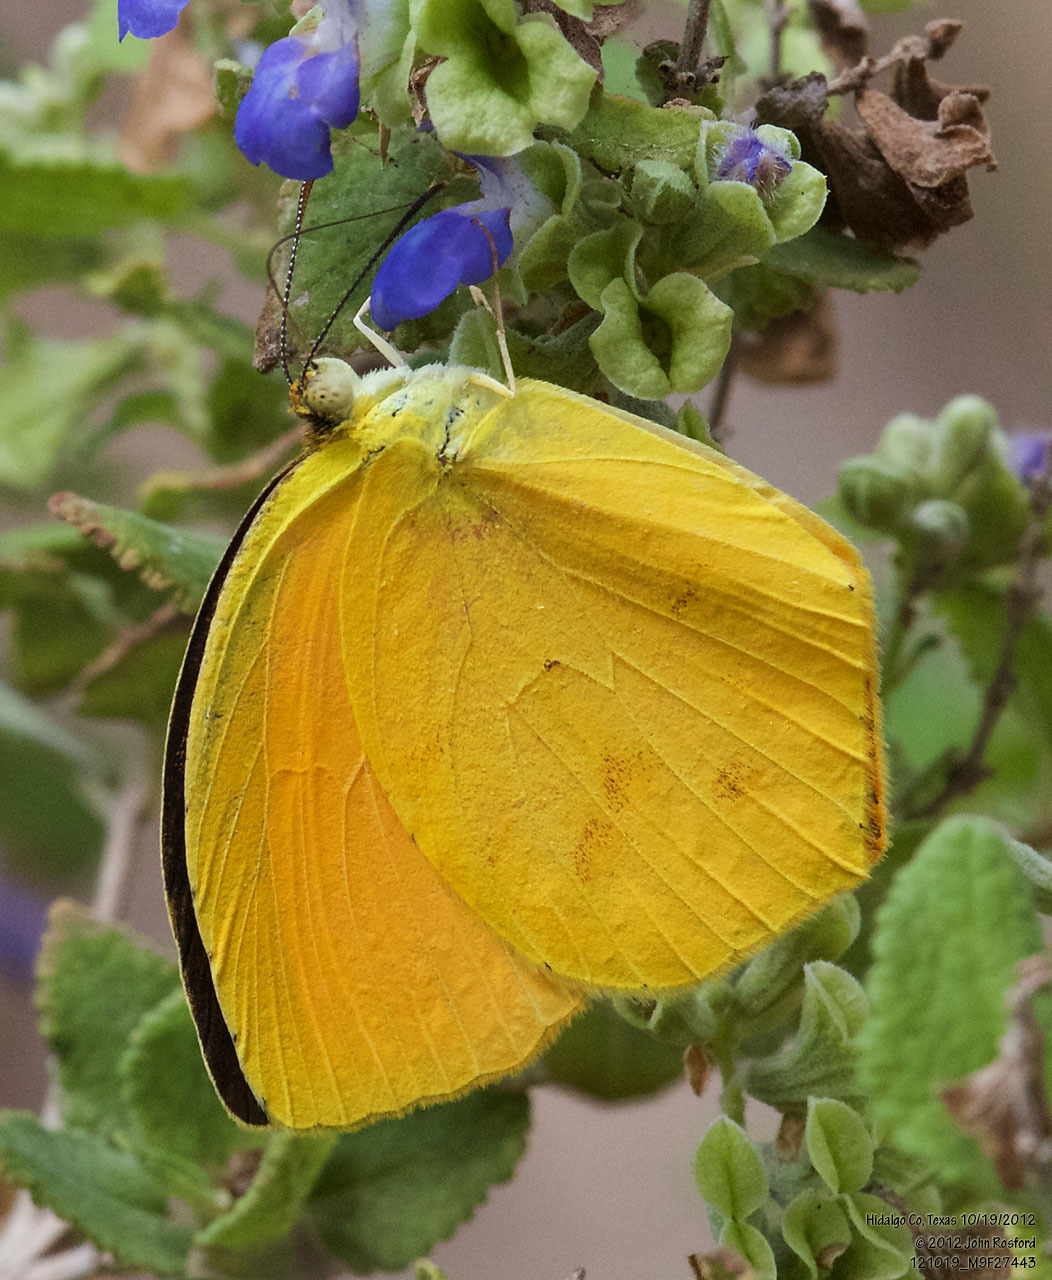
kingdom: Animalia
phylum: Arthropoda
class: Insecta
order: Lepidoptera
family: Pieridae
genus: Pyrisitia
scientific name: Pyrisitia proterpia
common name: Tailed orange
